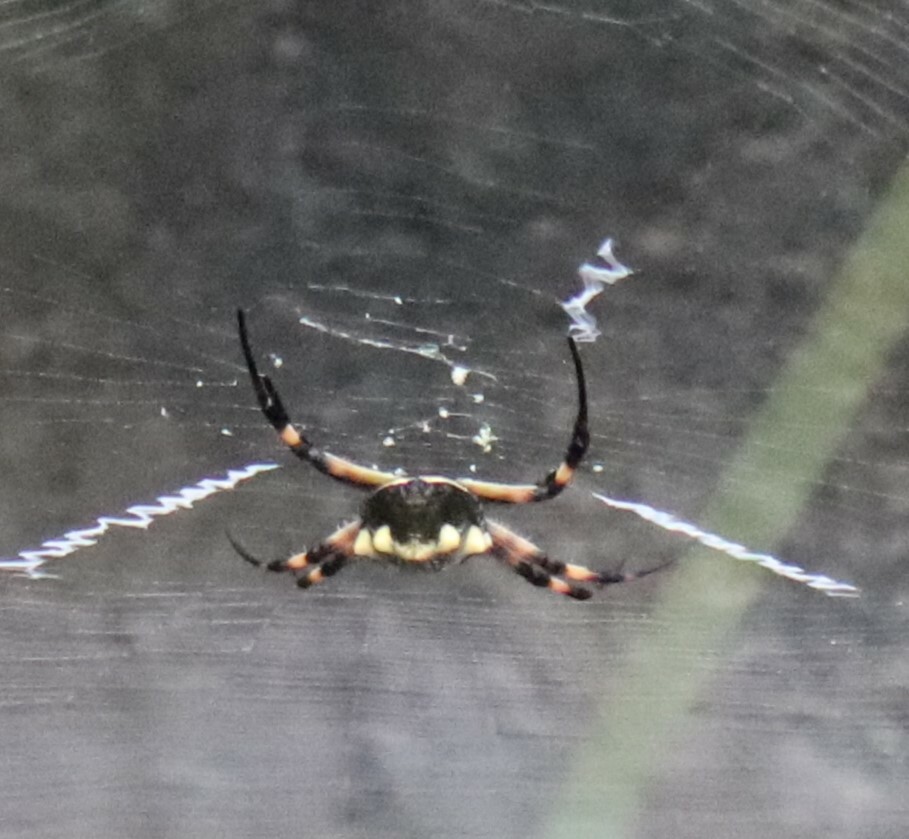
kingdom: Animalia
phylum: Arthropoda
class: Arachnida
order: Araneae
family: Araneidae
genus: Argiope
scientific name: Argiope argentata
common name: Orb weavers
